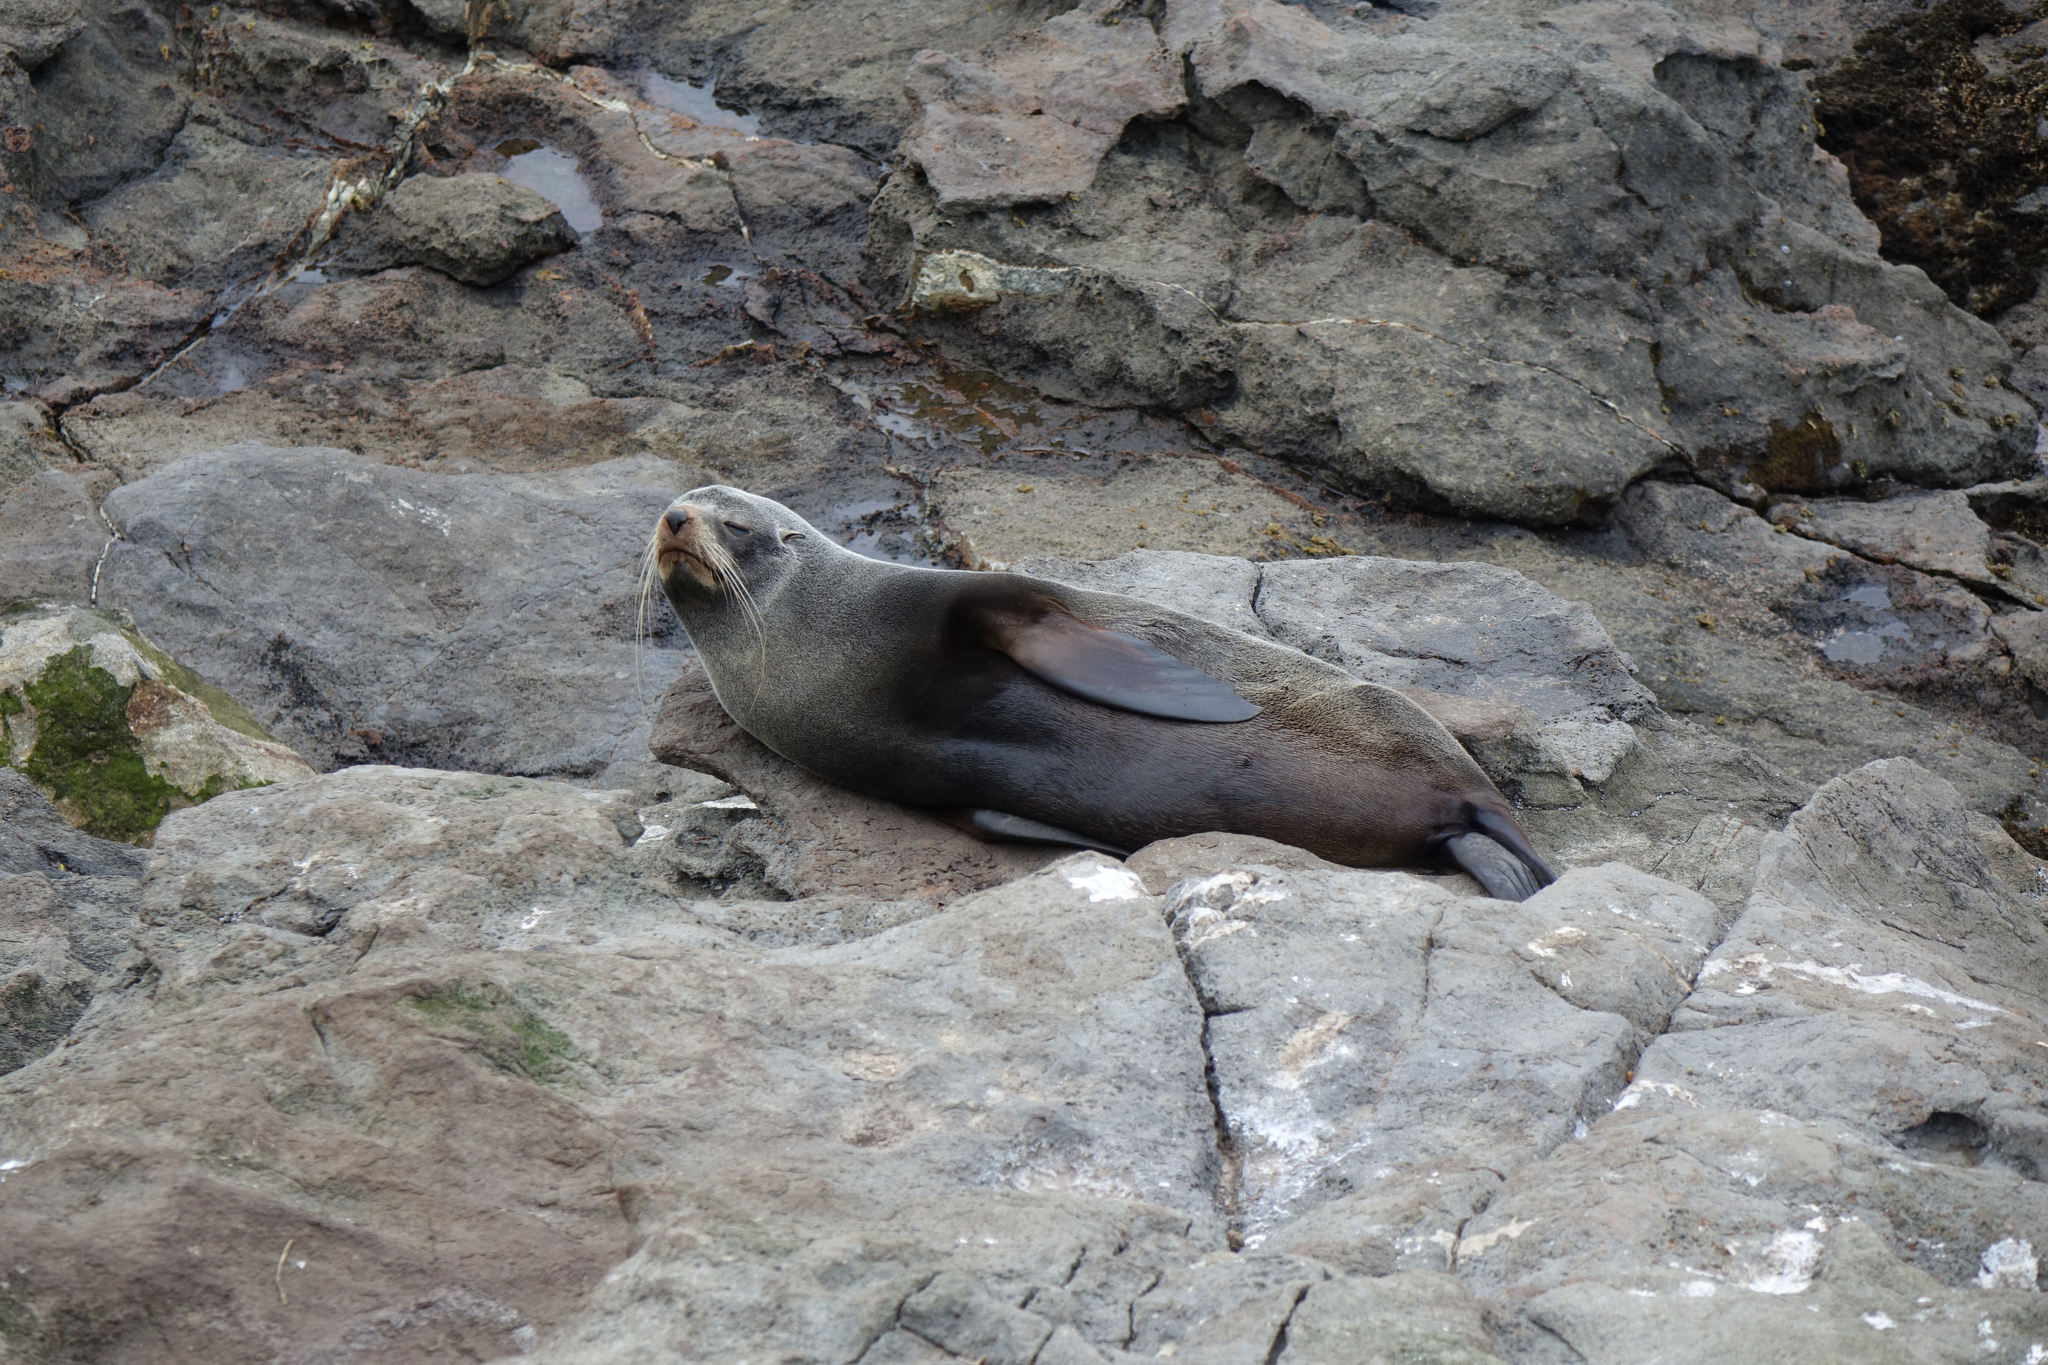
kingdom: Animalia
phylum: Chordata
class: Mammalia
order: Carnivora
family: Otariidae
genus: Arctocephalus
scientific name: Arctocephalus forsteri
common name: New zealand fur seal
